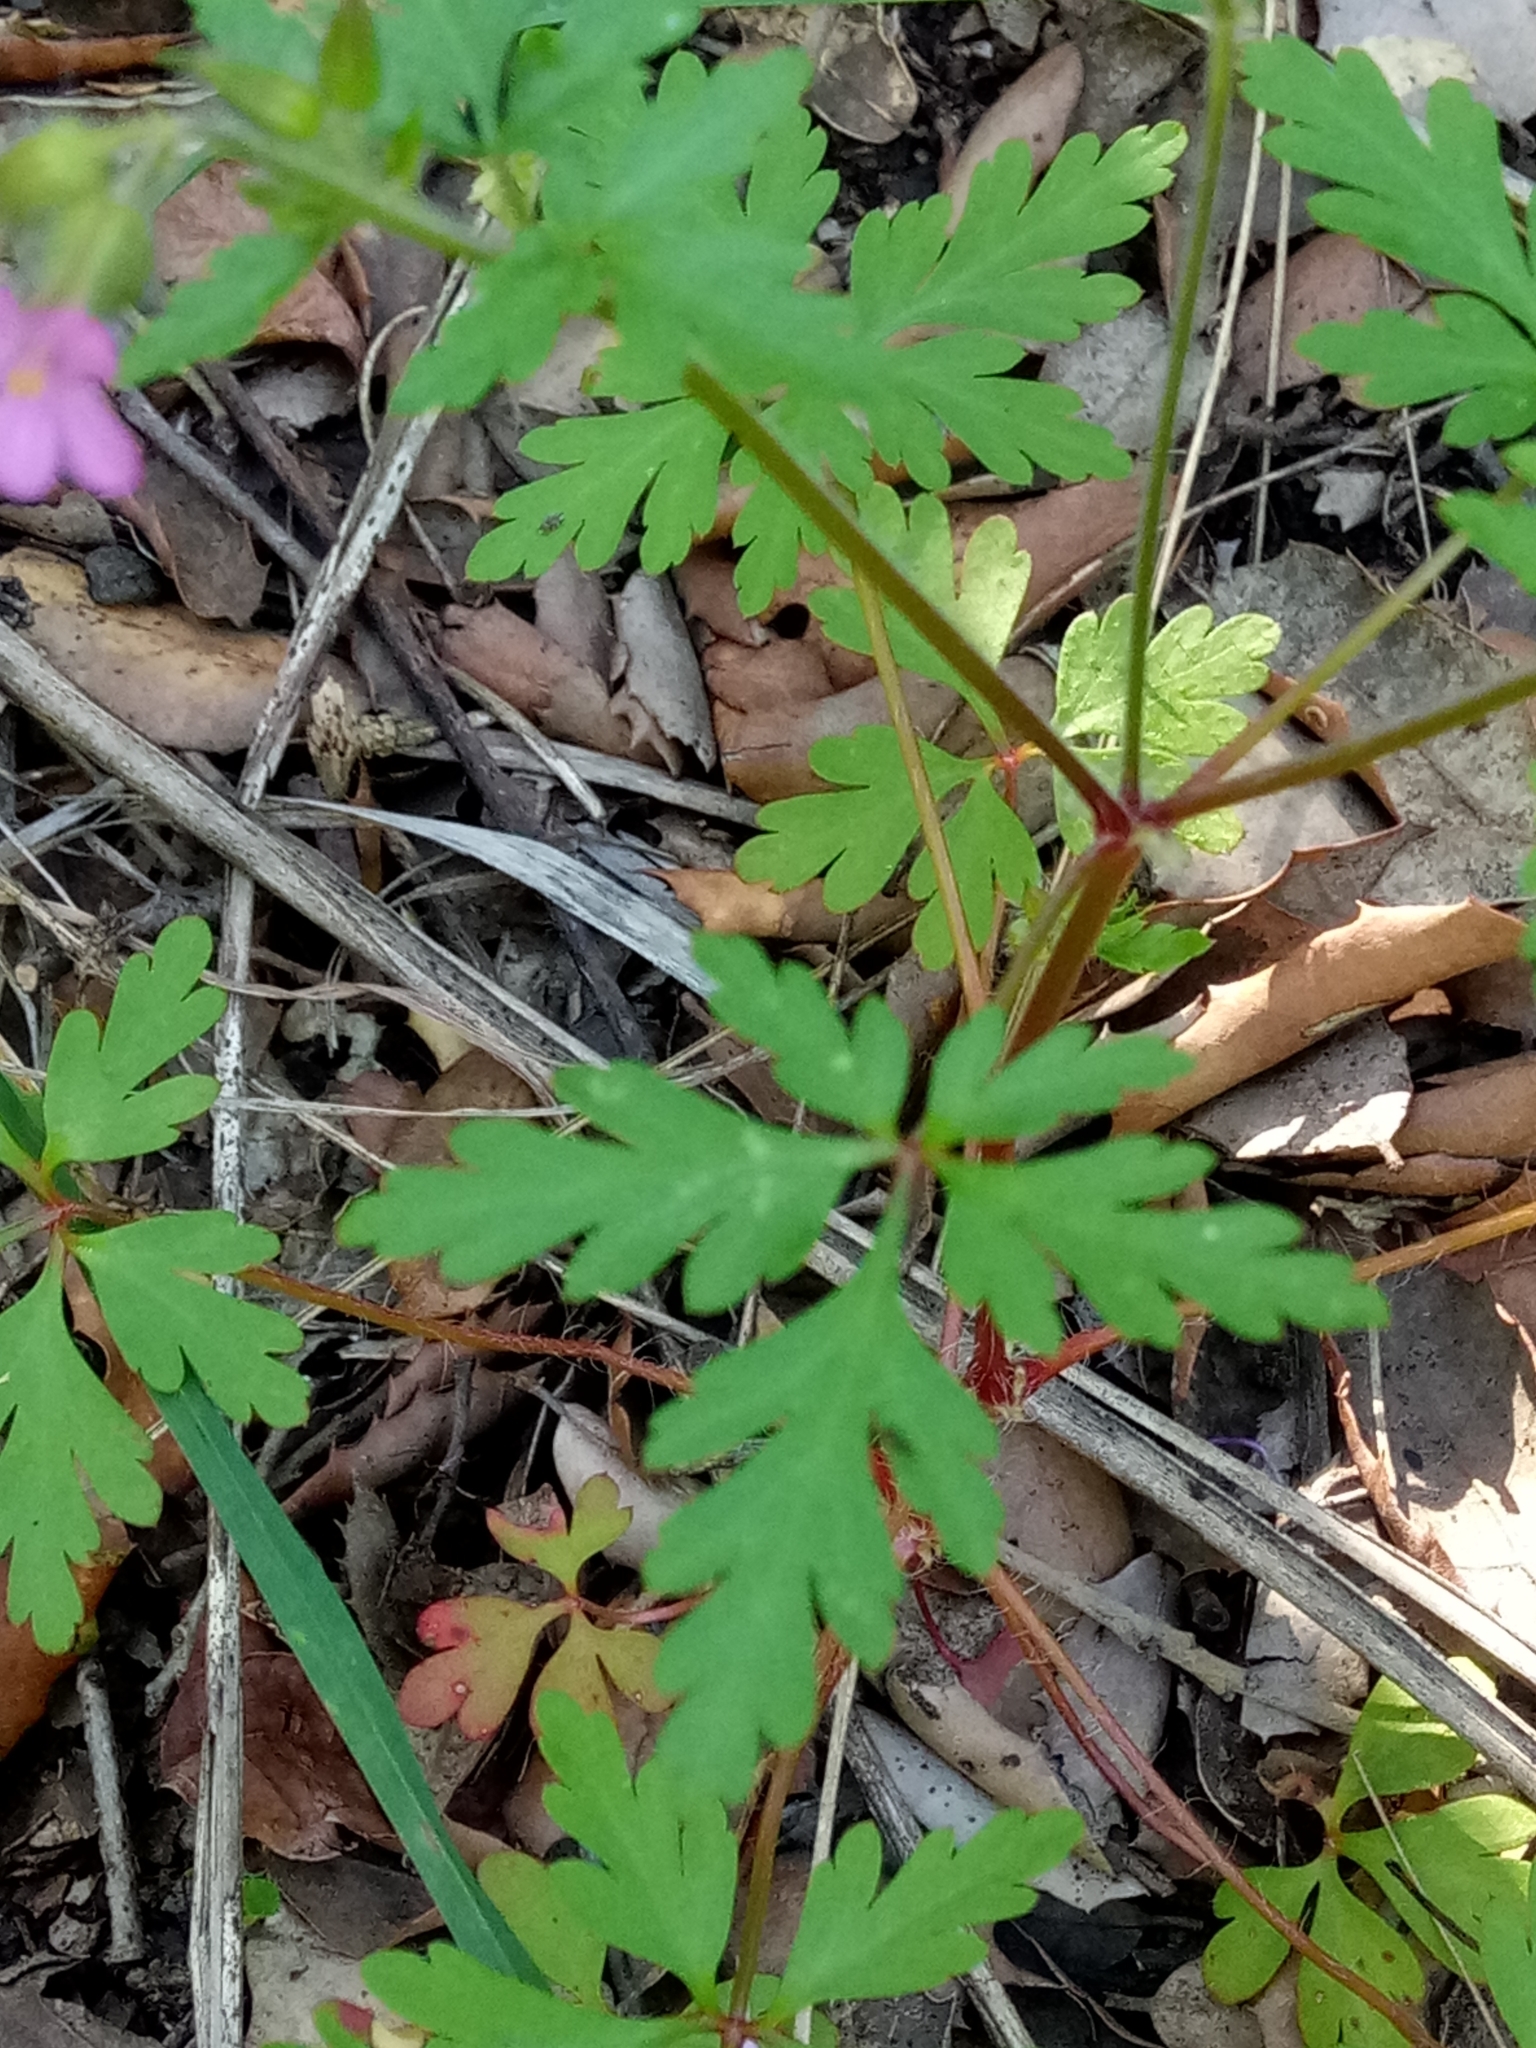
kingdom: Plantae
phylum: Tracheophyta
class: Magnoliopsida
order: Geraniales
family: Geraniaceae
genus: Geranium
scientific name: Geranium purpureum
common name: Little-robin
